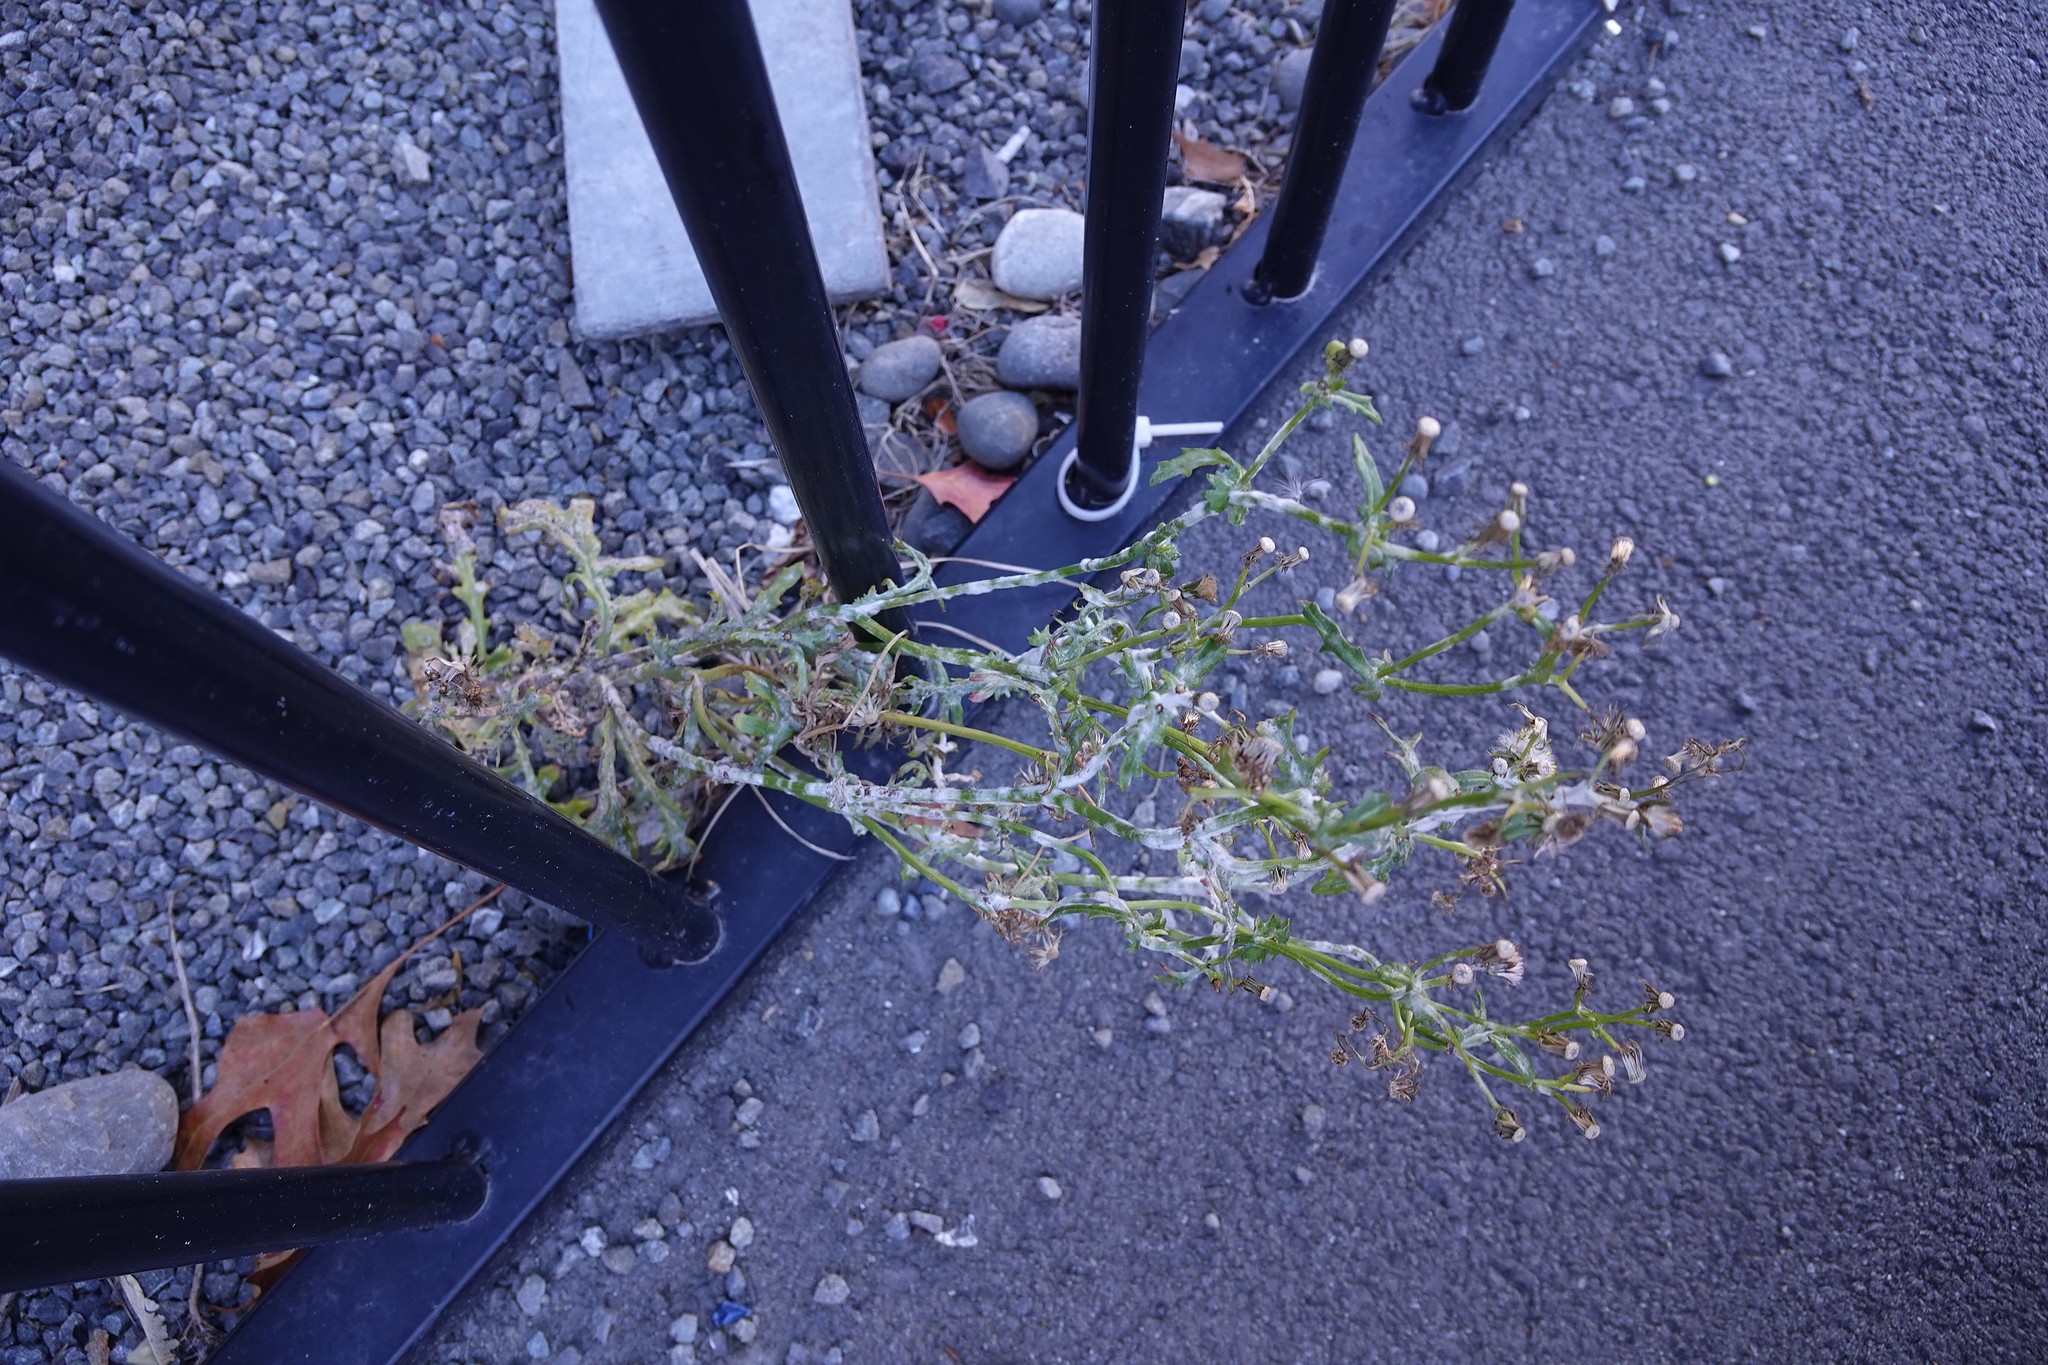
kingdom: Plantae
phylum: Tracheophyta
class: Magnoliopsida
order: Asterales
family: Asteraceae
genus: Senecio
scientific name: Senecio vulgaris
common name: Old-man-in-the-spring
